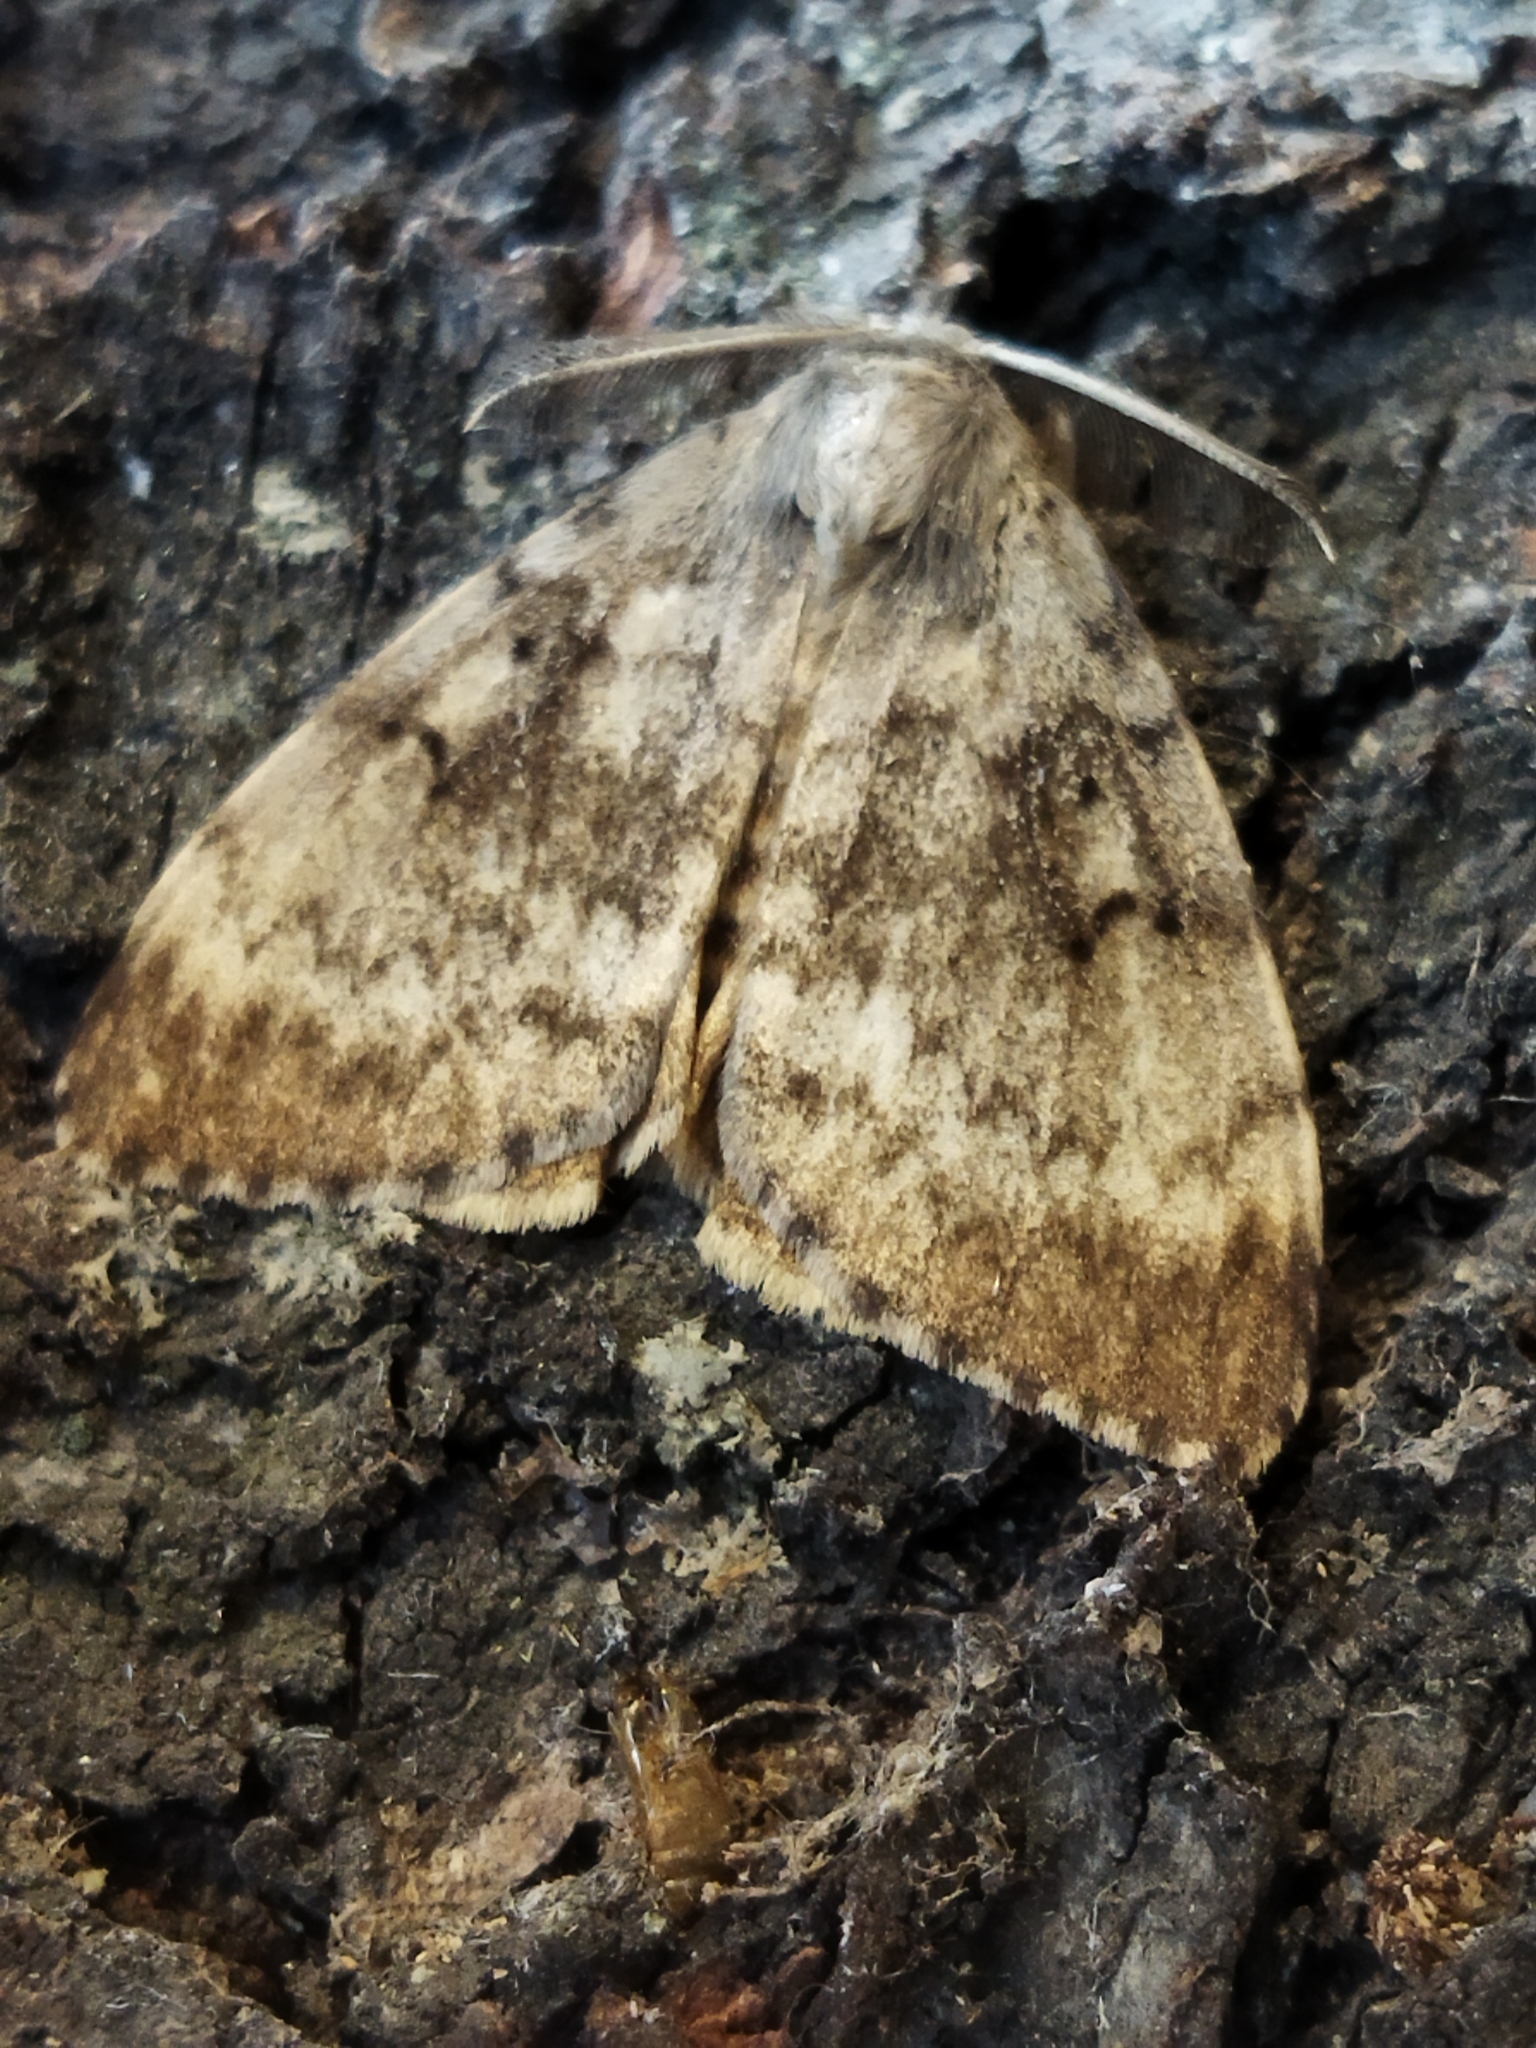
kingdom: Animalia
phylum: Arthropoda
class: Insecta
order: Lepidoptera
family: Erebidae
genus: Lymantria
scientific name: Lymantria dispar
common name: Gypsy moth
